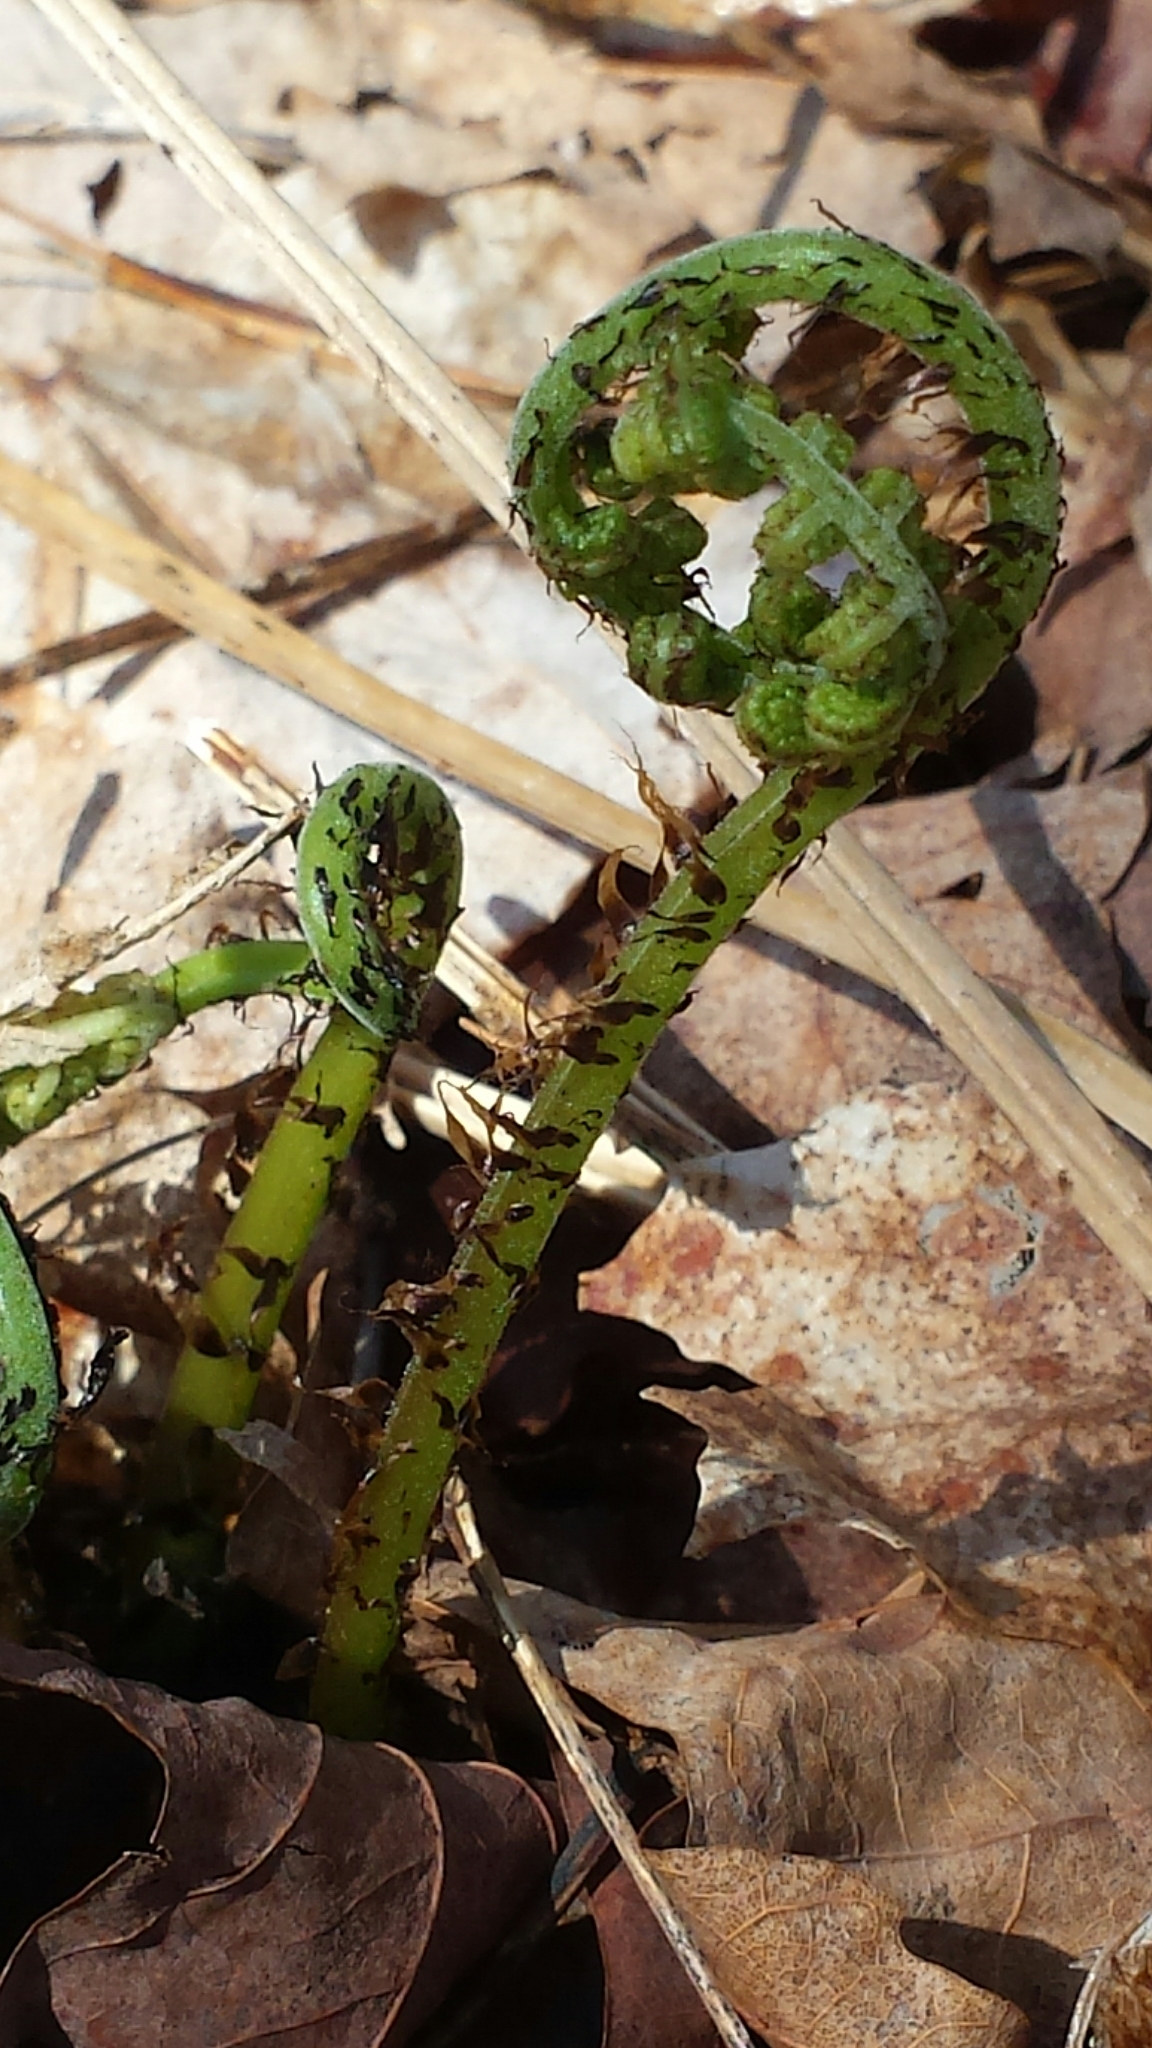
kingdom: Plantae
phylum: Tracheophyta
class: Polypodiopsida
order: Polypodiales
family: Athyriaceae
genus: Athyrium
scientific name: Athyrium angustum
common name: Northern lady fern
